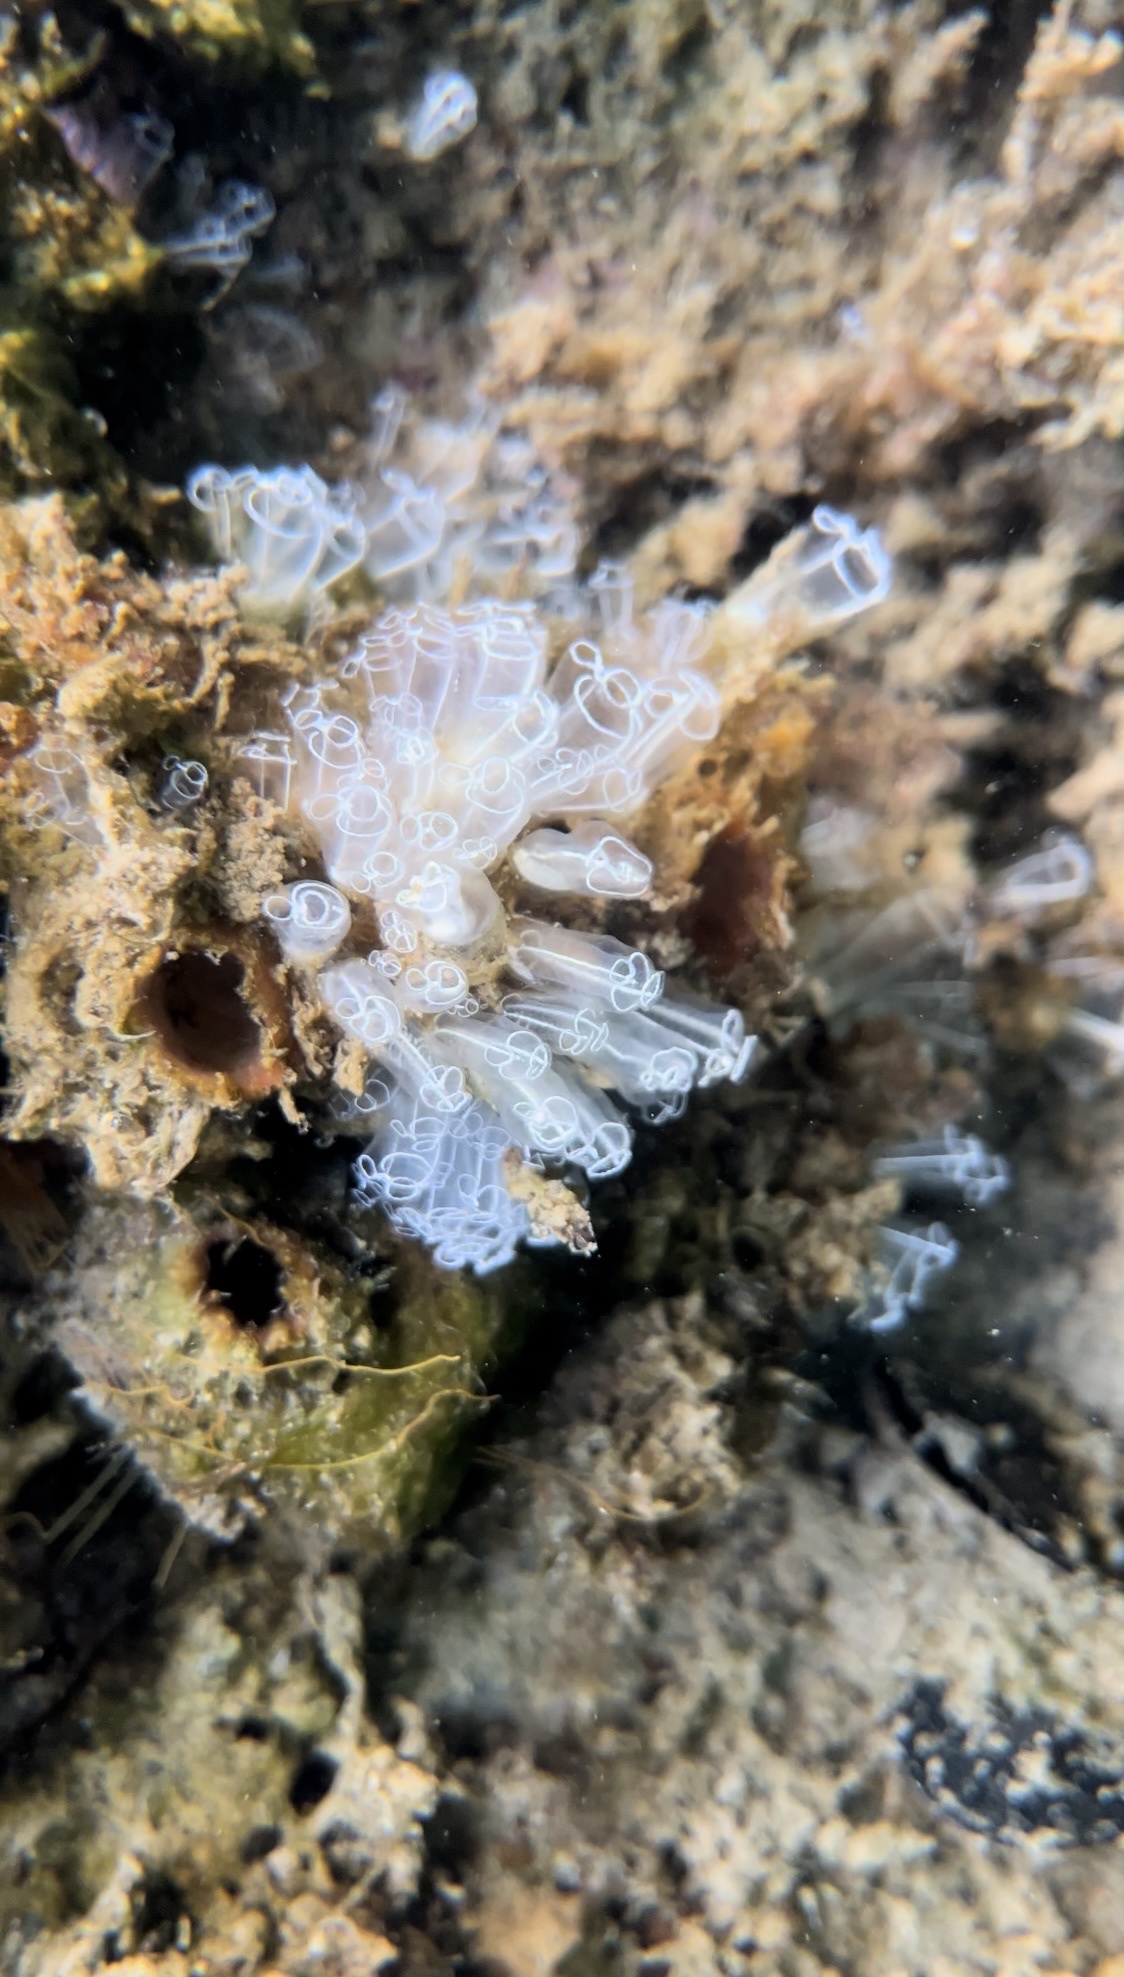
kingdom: Animalia
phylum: Chordata
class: Ascidiacea
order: Aplousobranchia
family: Clavelinidae
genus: Clavelina
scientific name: Clavelina lepadiformis
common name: Light bulb tunicate
